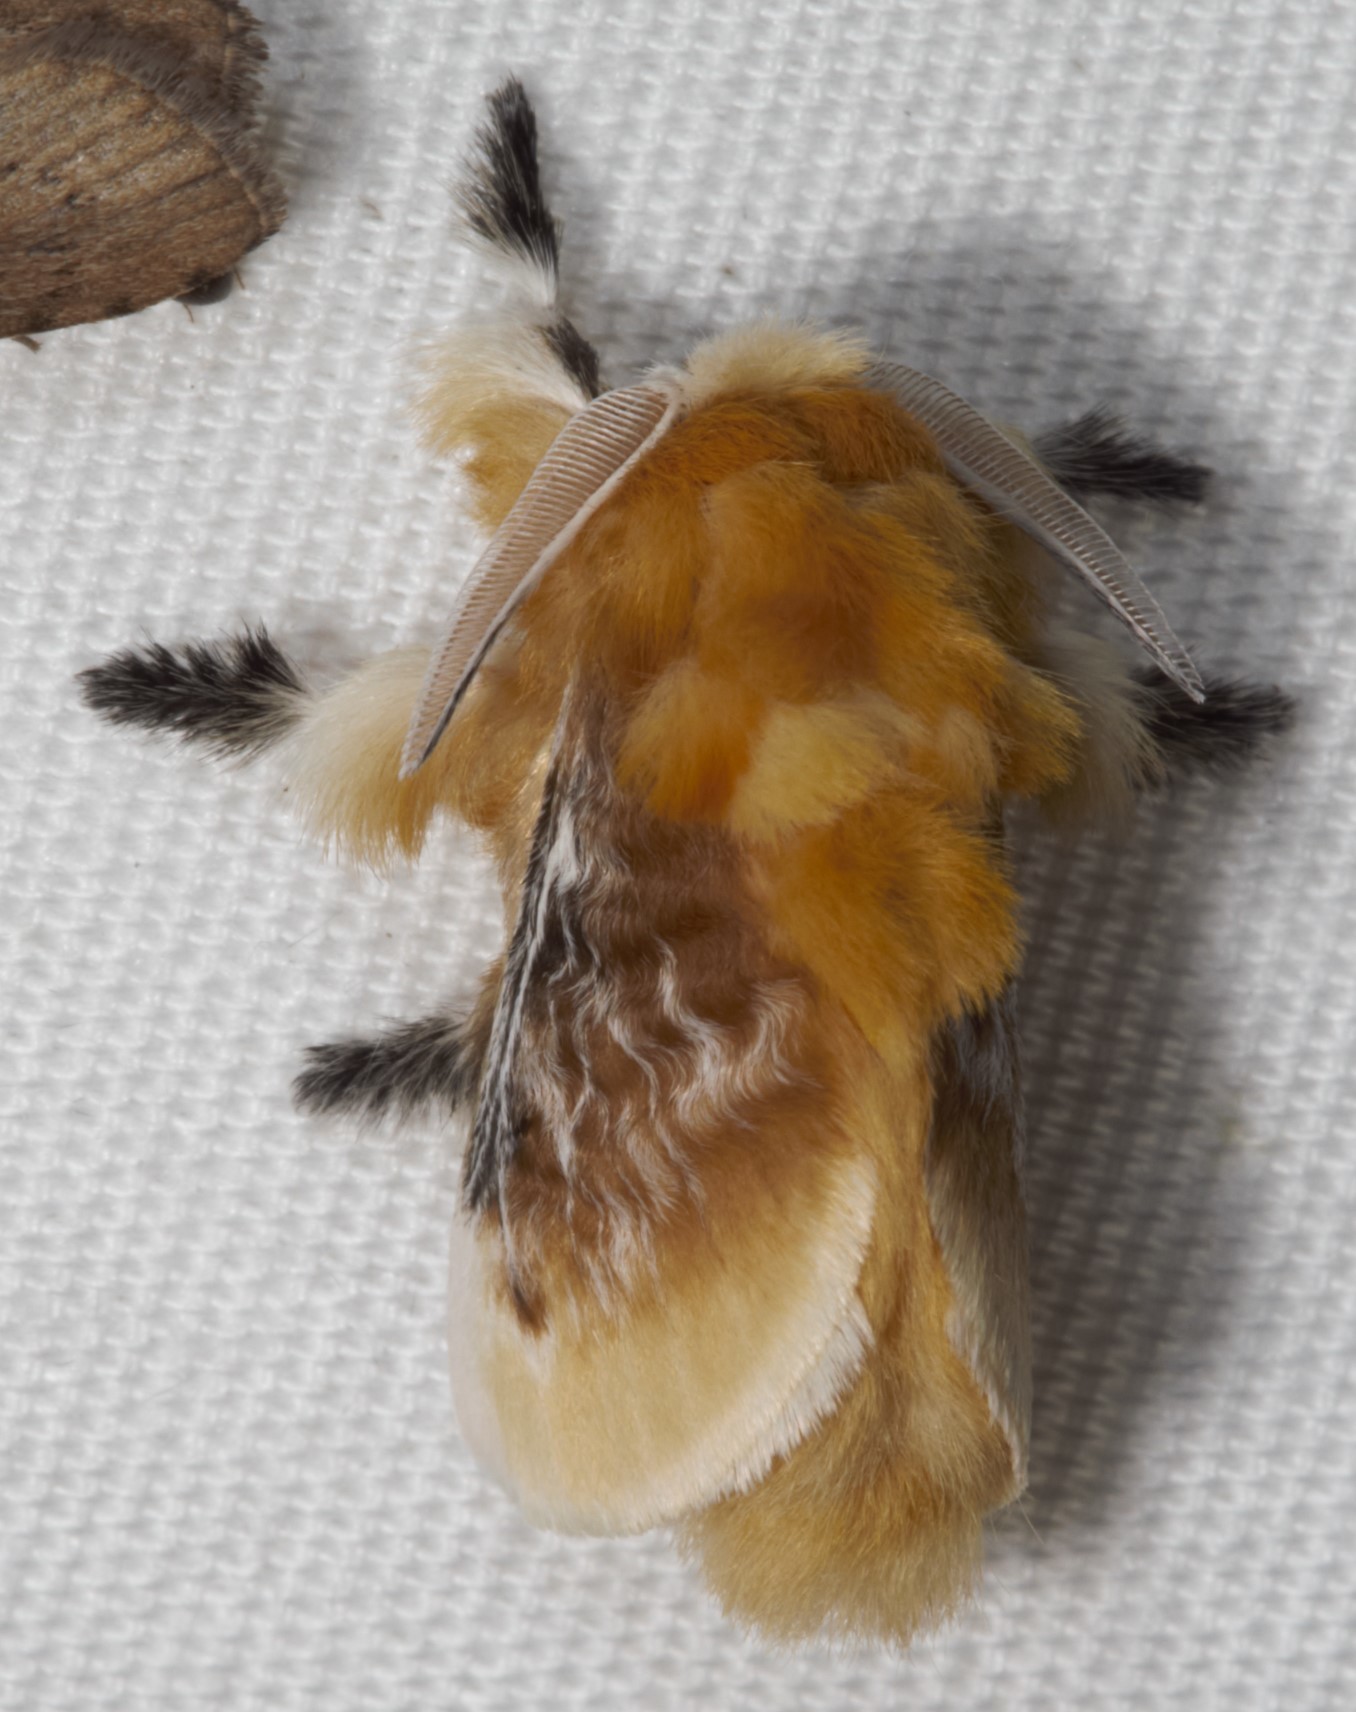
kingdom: Animalia
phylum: Arthropoda
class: Insecta
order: Lepidoptera
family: Megalopygidae
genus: Megalopyge
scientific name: Megalopyge opercularis
